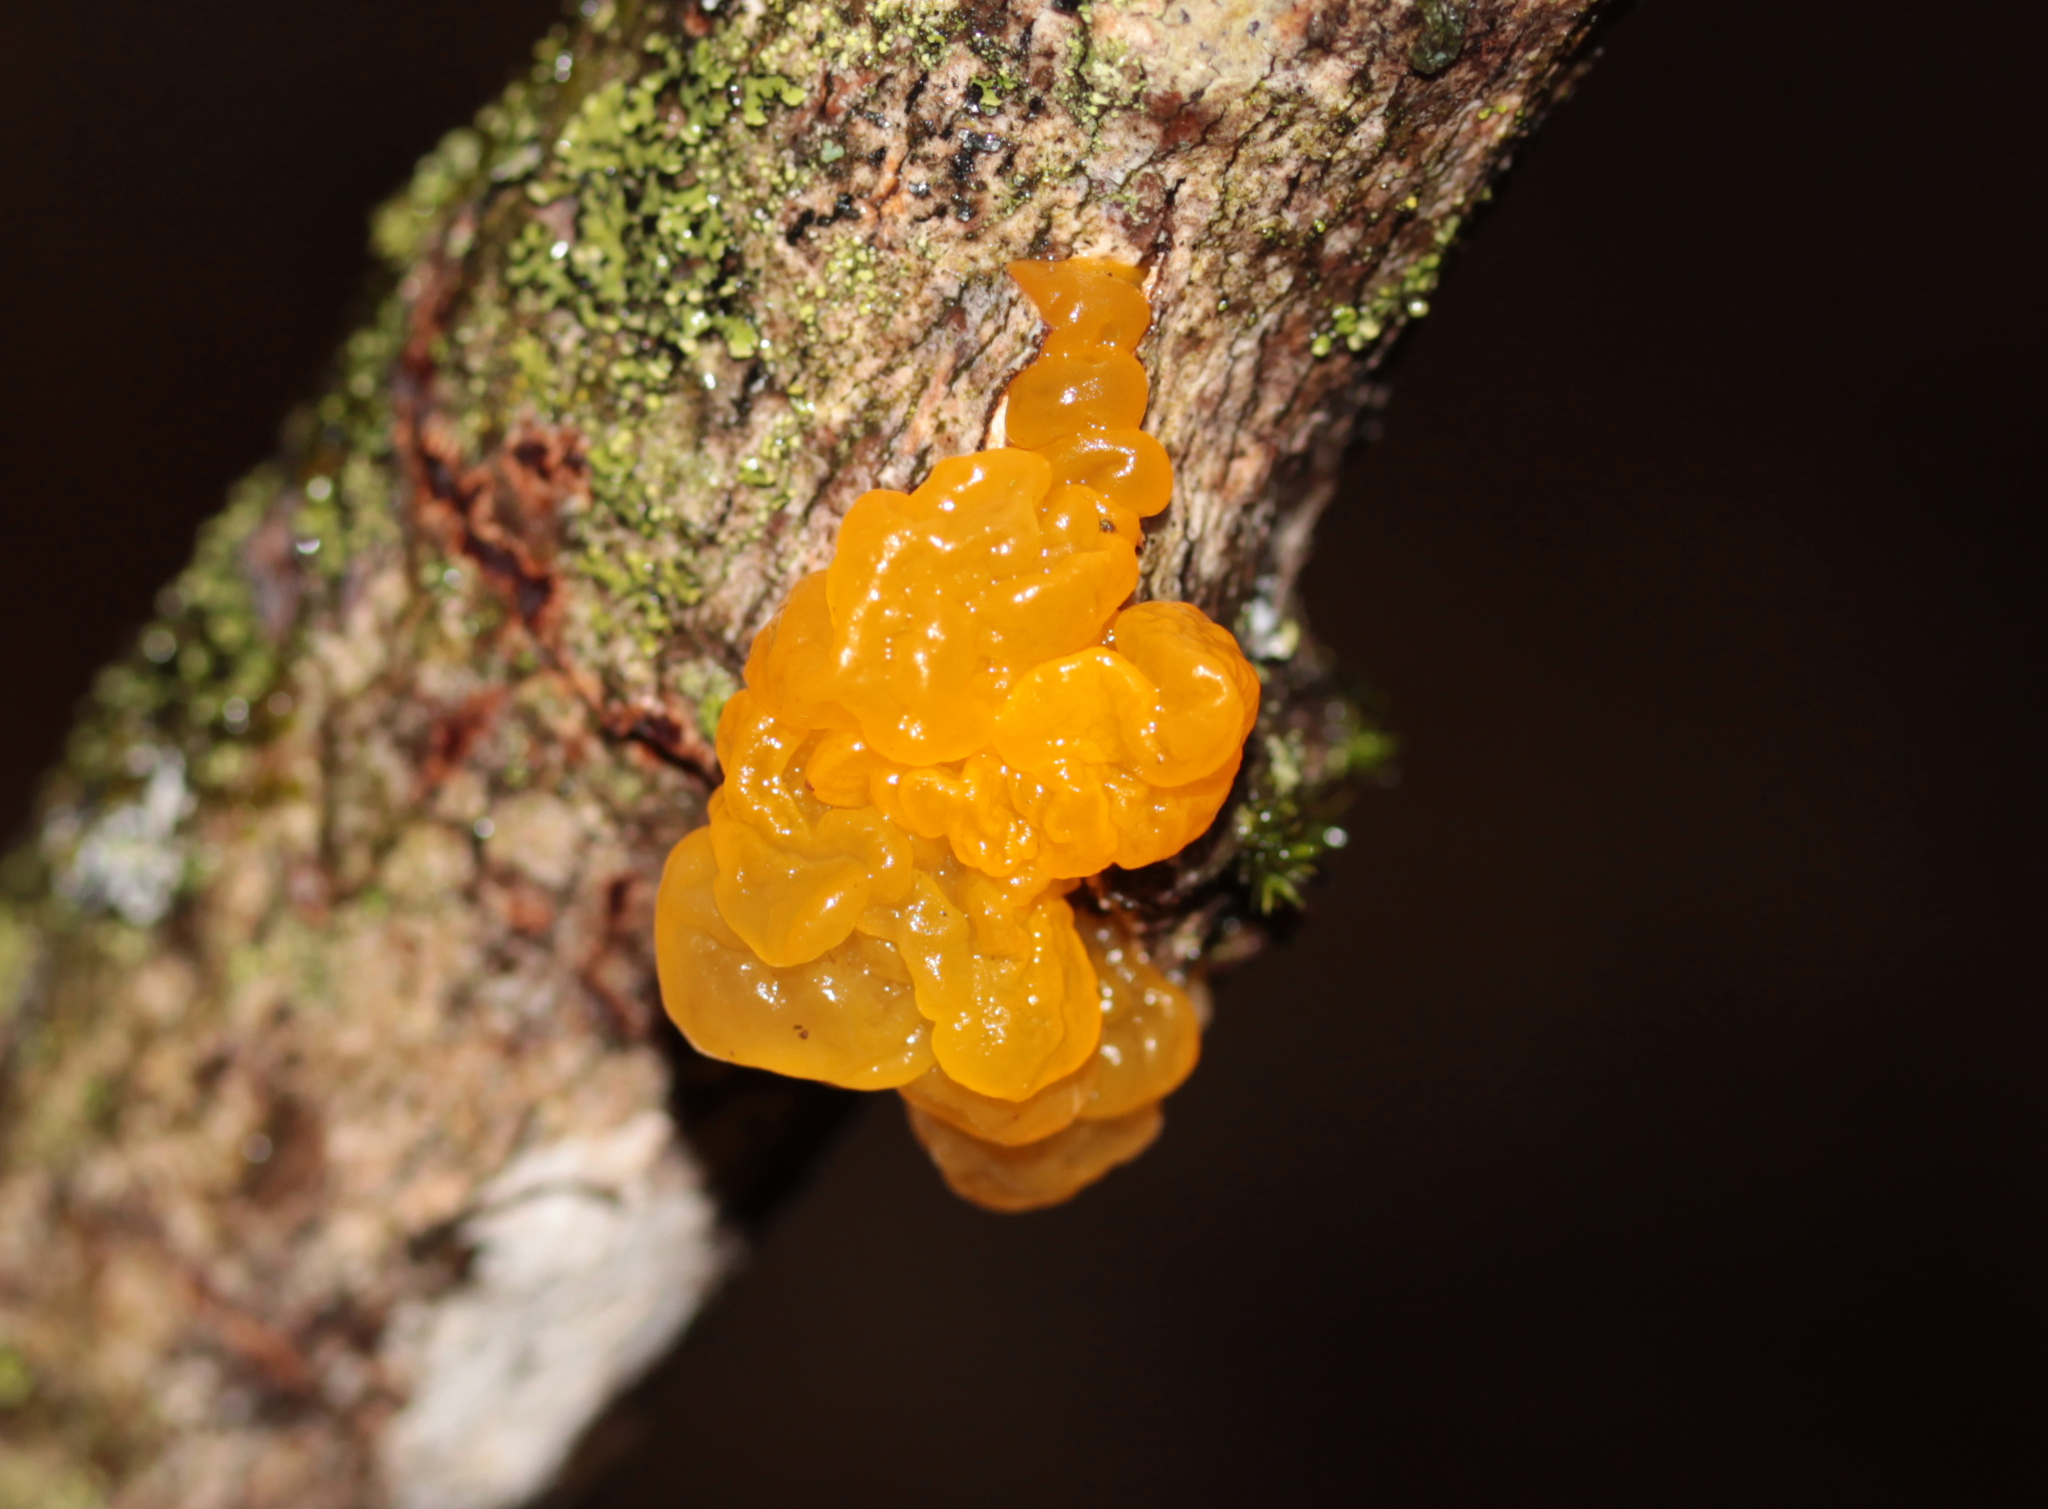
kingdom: Fungi
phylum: Basidiomycota
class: Tremellomycetes
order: Tremellales
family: Tremellaceae
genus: Tremella
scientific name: Tremella mesenterica
